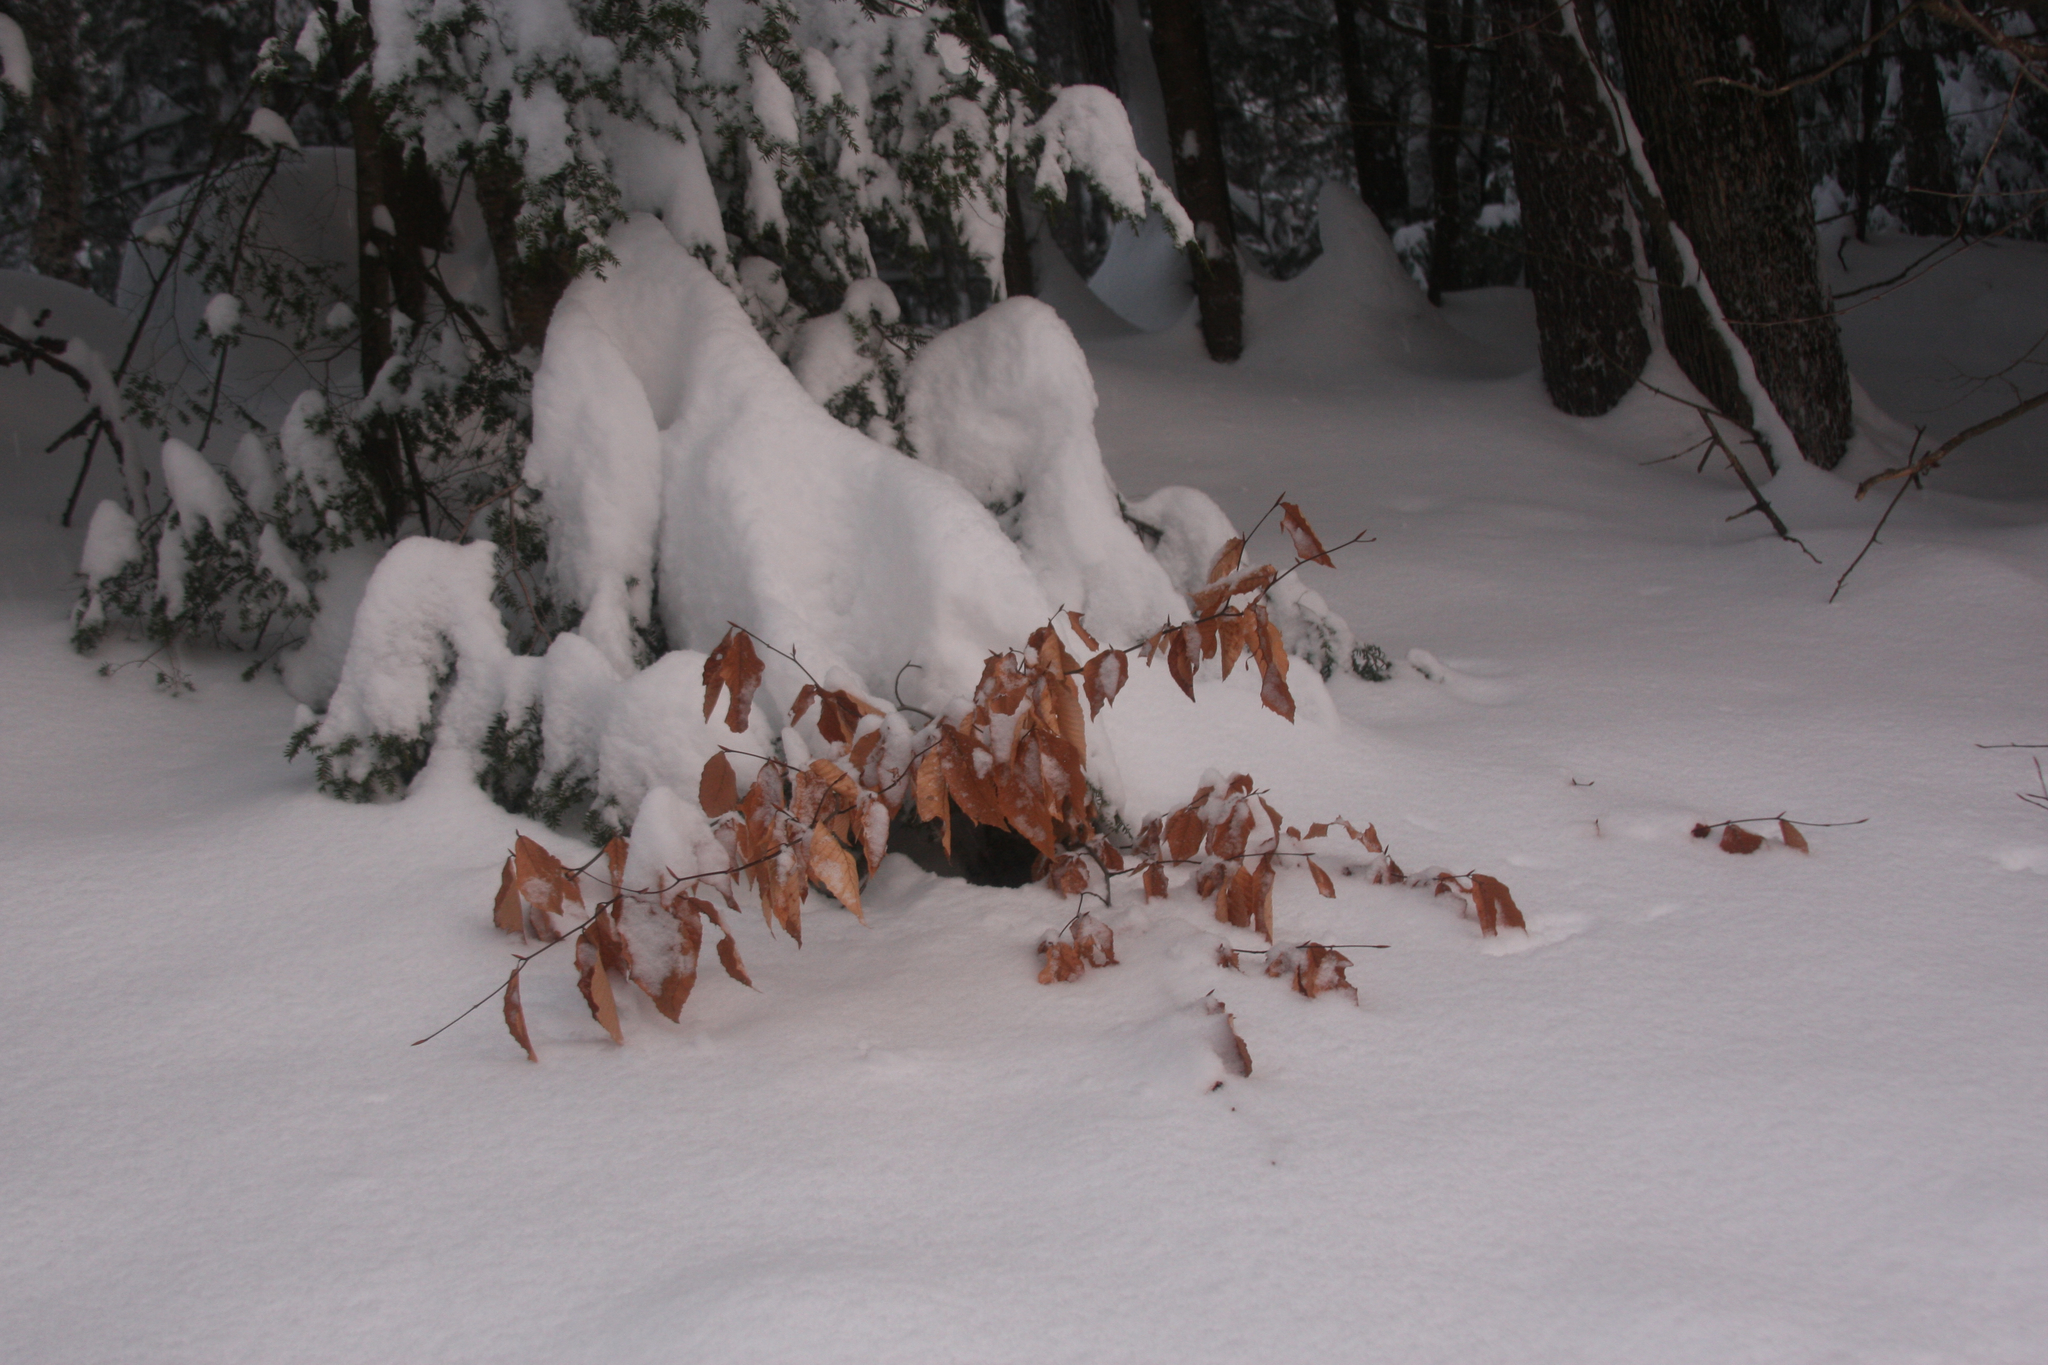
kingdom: Plantae
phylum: Tracheophyta
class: Magnoliopsida
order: Fagales
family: Fagaceae
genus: Fagus
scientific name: Fagus grandifolia
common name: American beech
